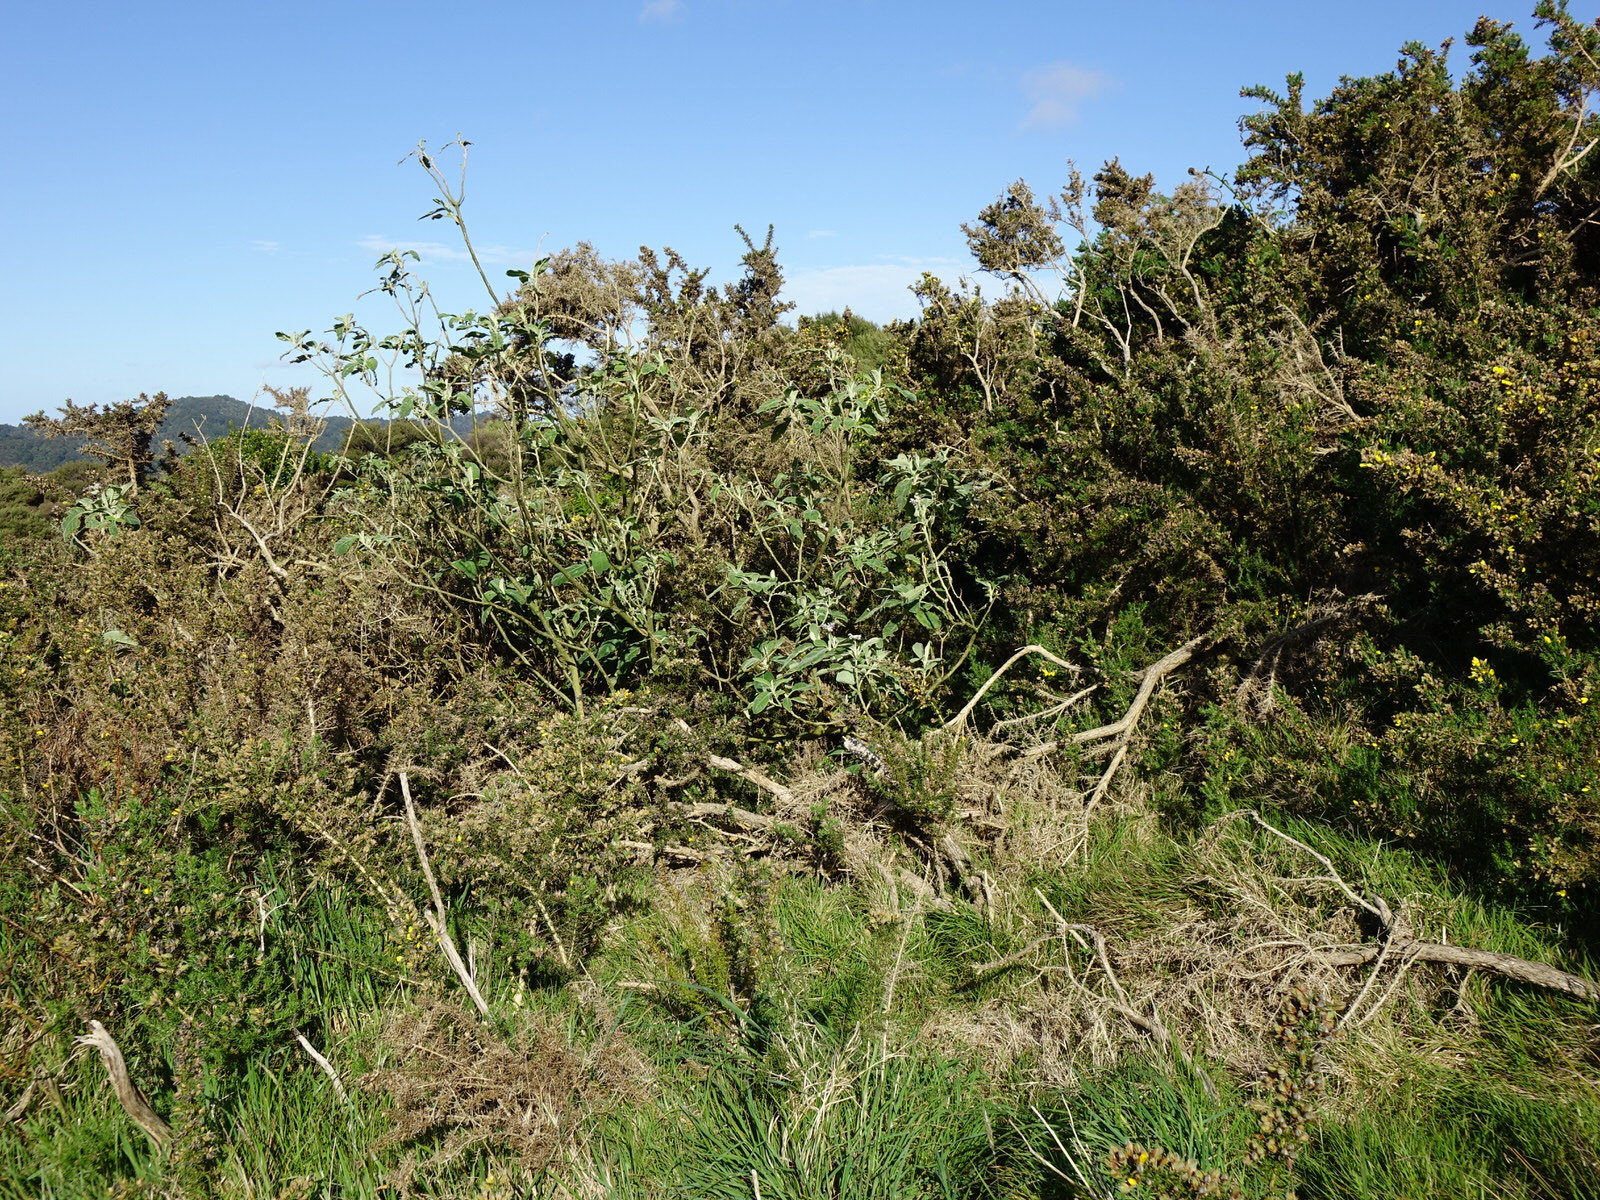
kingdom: Animalia
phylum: Chordata
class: Mammalia
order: Lagomorpha
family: Leporidae
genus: Oryctolagus
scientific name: Oryctolagus cuniculus
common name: European rabbit
